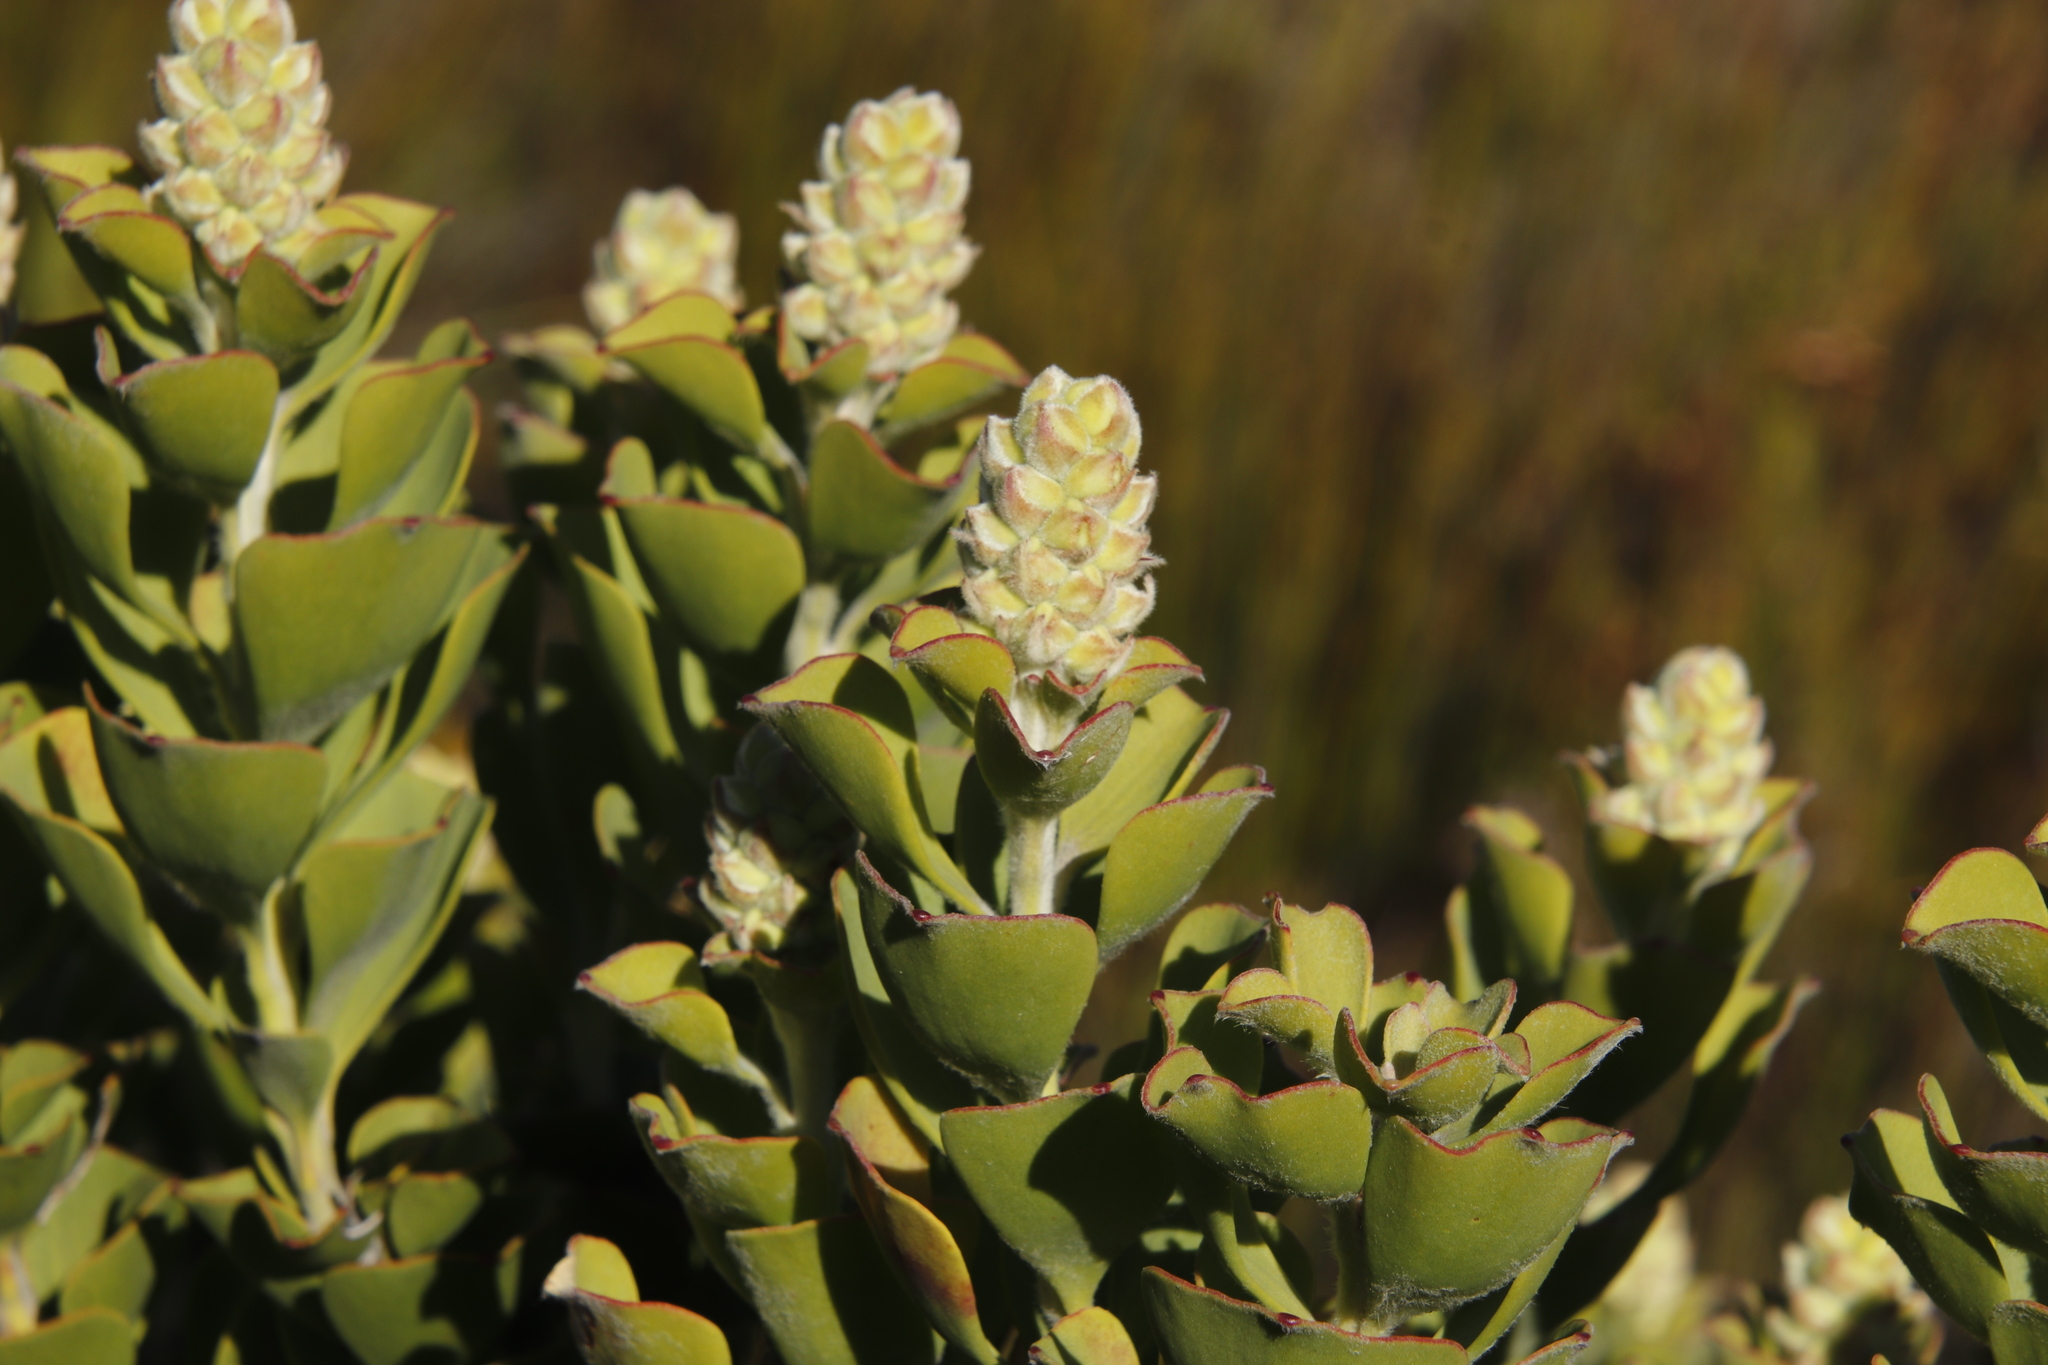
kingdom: Plantae
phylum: Tracheophyta
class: Magnoliopsida
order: Proteales
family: Proteaceae
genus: Paranomus
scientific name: Paranomus sceptrum-gustavianus
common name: King gustav's sceptre
